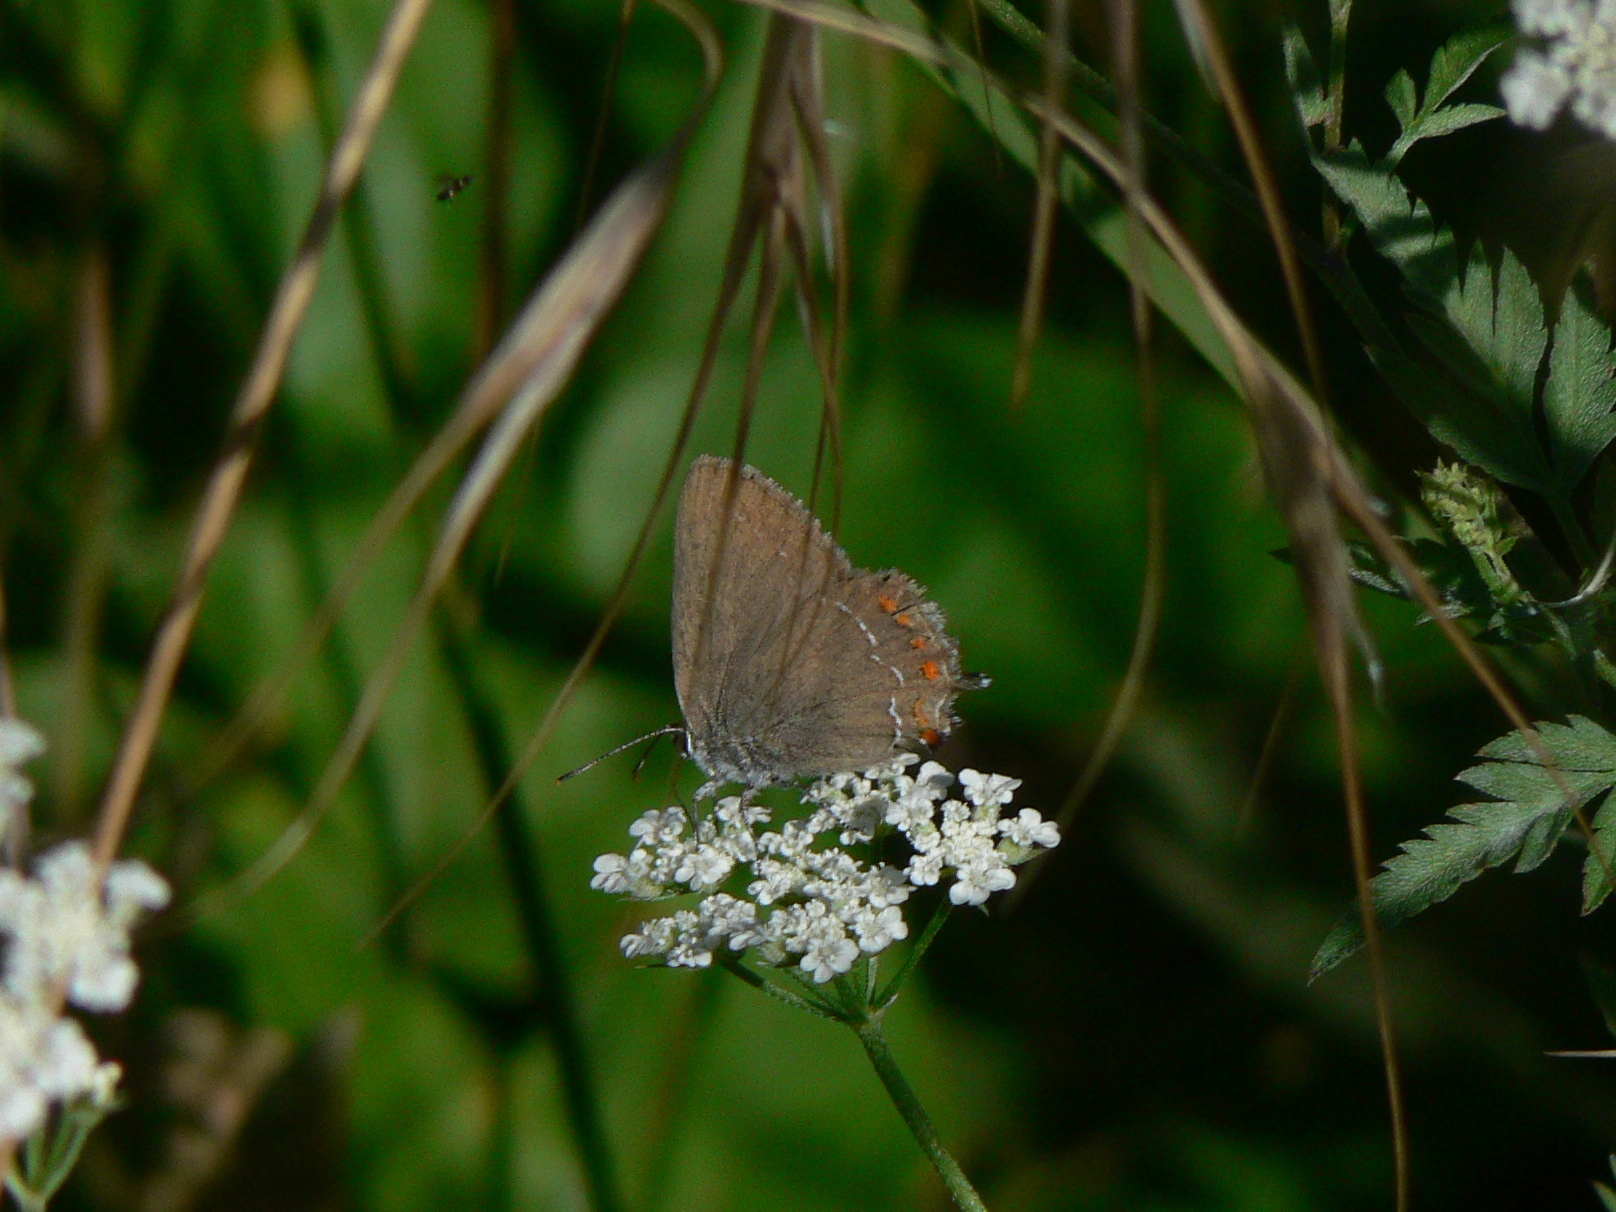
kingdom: Animalia
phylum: Arthropoda
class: Insecta
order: Lepidoptera
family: Lycaenidae
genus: Fixsenia
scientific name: Fixsenia esculi
